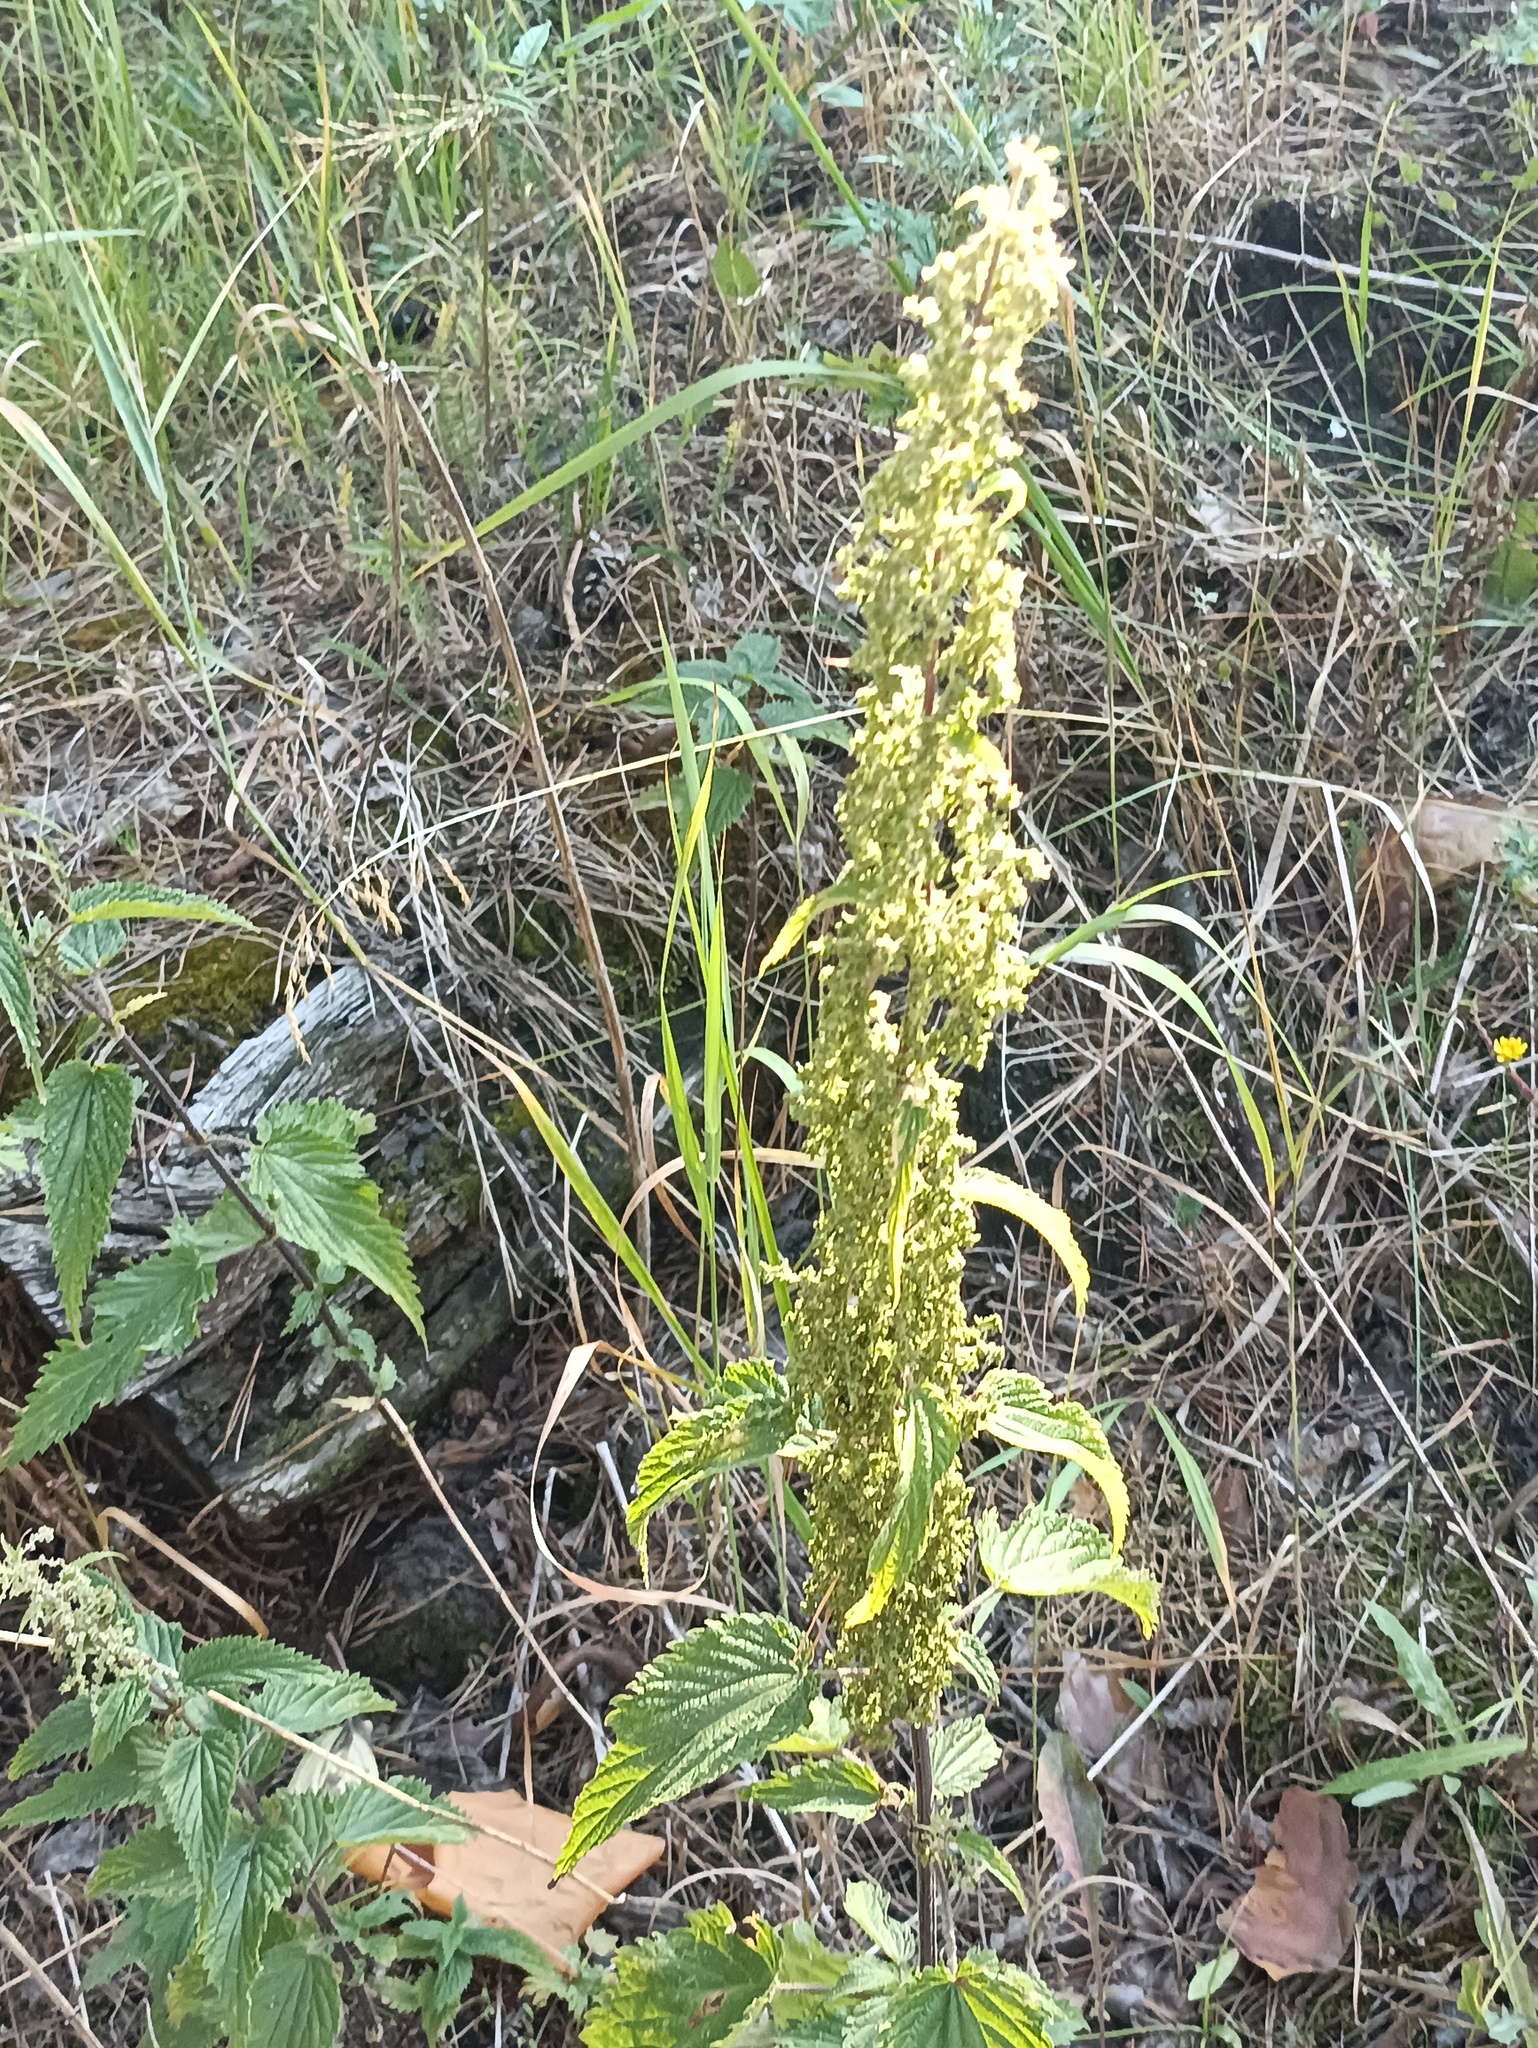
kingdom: Plantae
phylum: Tracheophyta
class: Magnoliopsida
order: Rosales
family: Urticaceae
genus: Urtica
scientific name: Urtica dioica
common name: Common nettle
